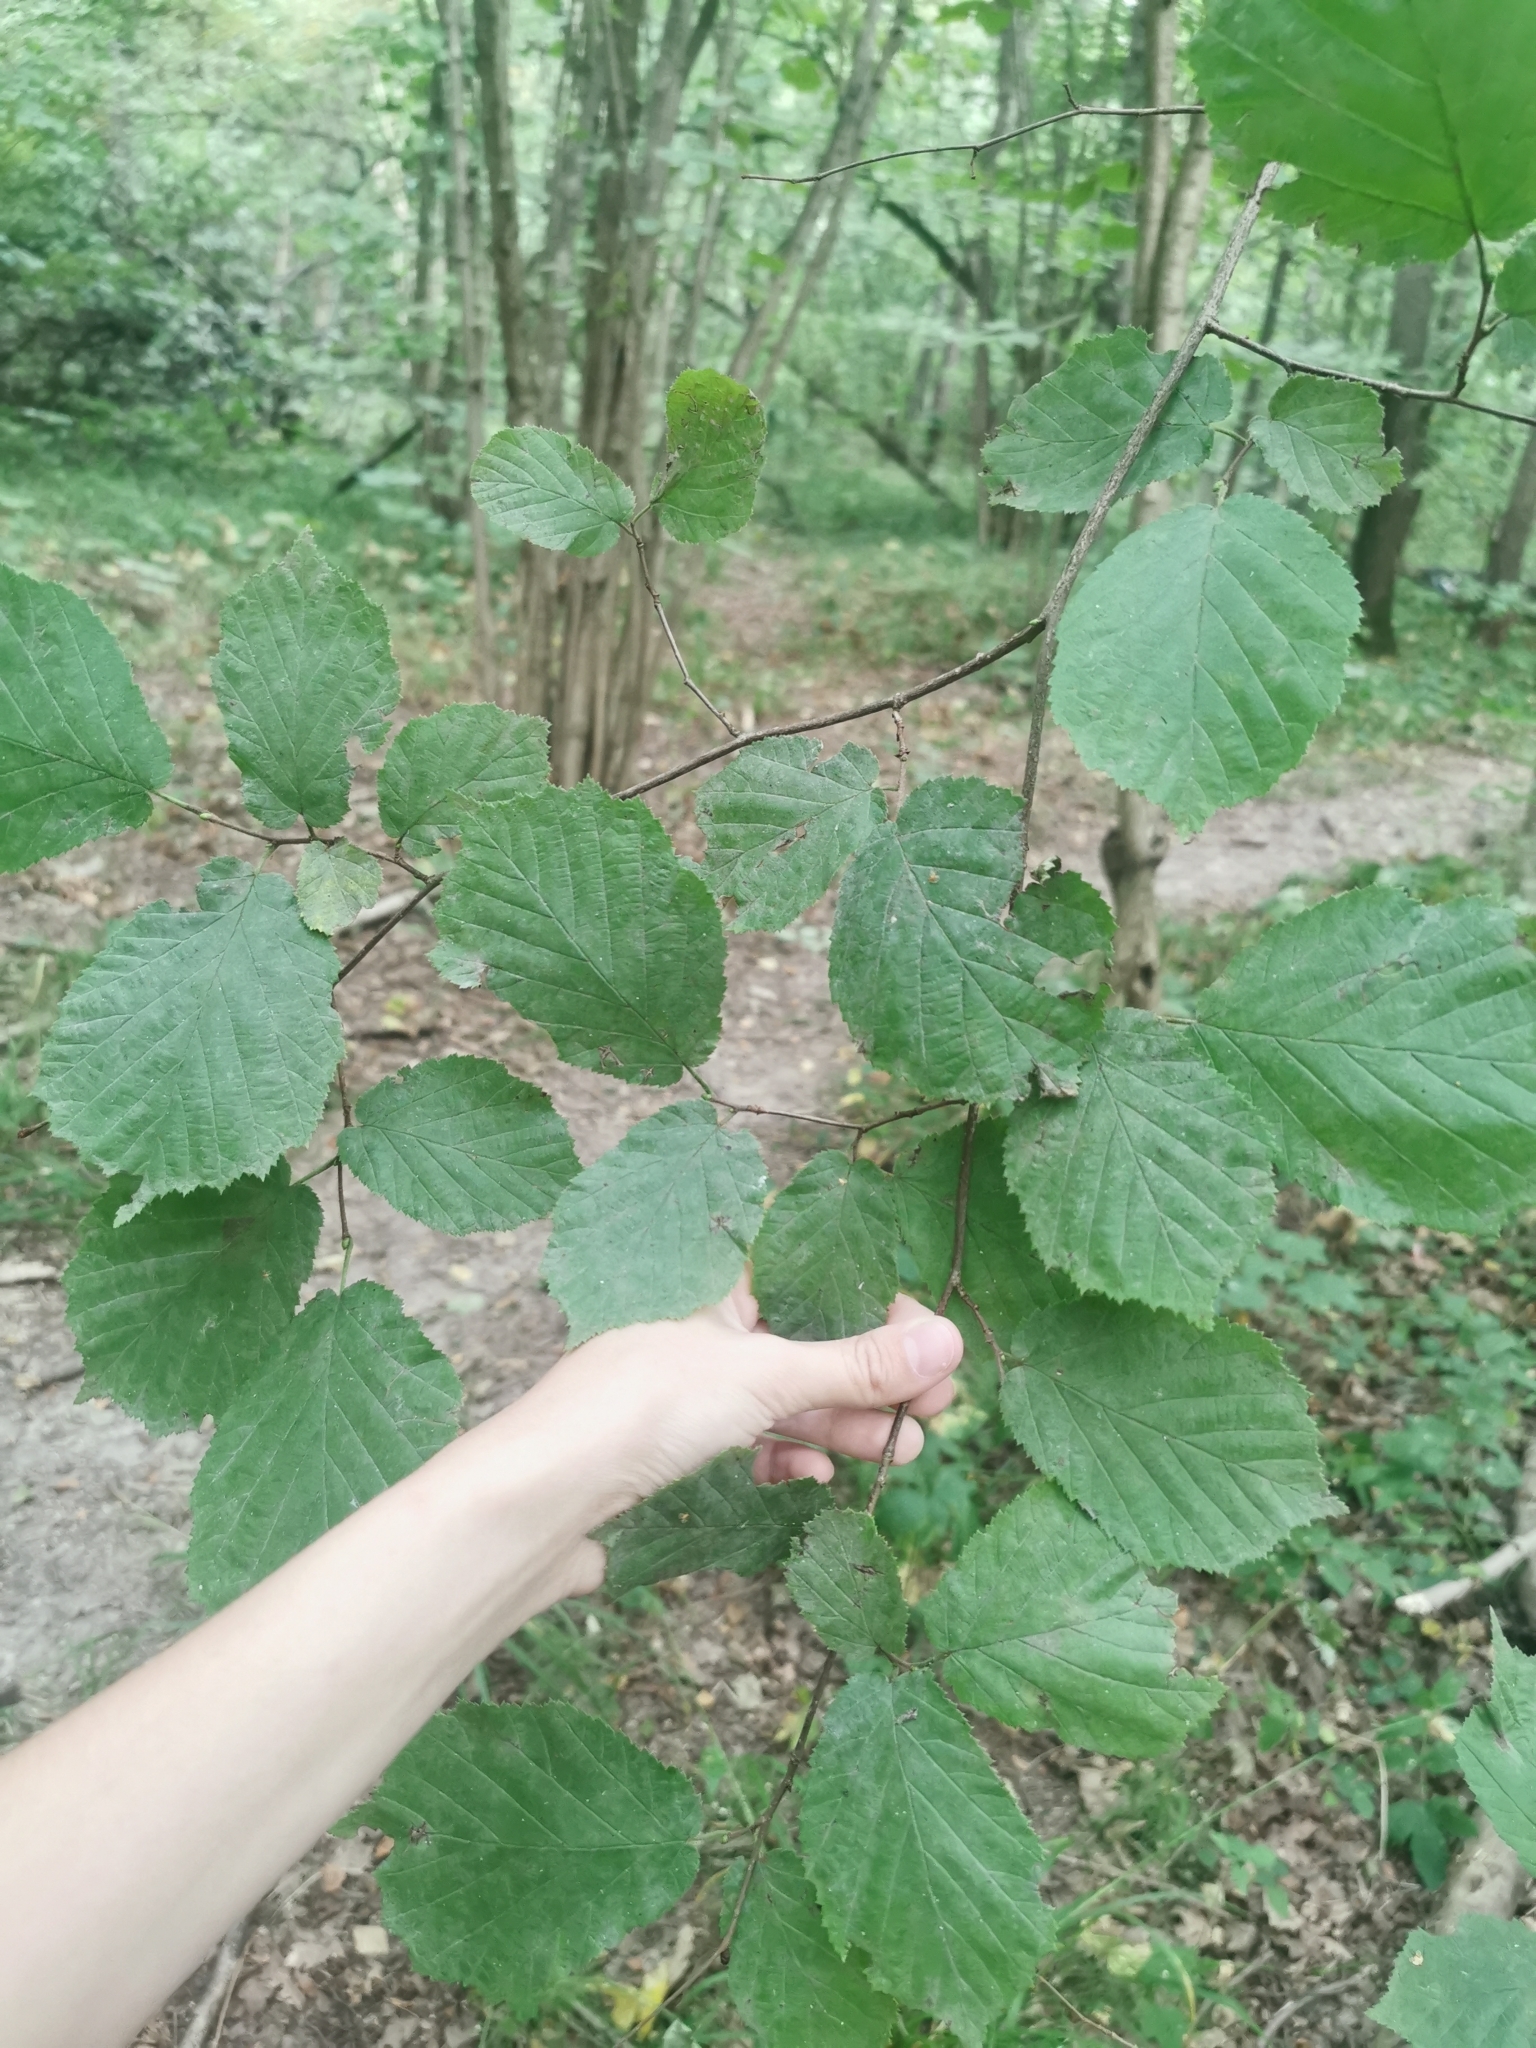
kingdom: Plantae
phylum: Tracheophyta
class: Magnoliopsida
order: Fagales
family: Betulaceae
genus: Corylus
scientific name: Corylus avellana
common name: European hazel
